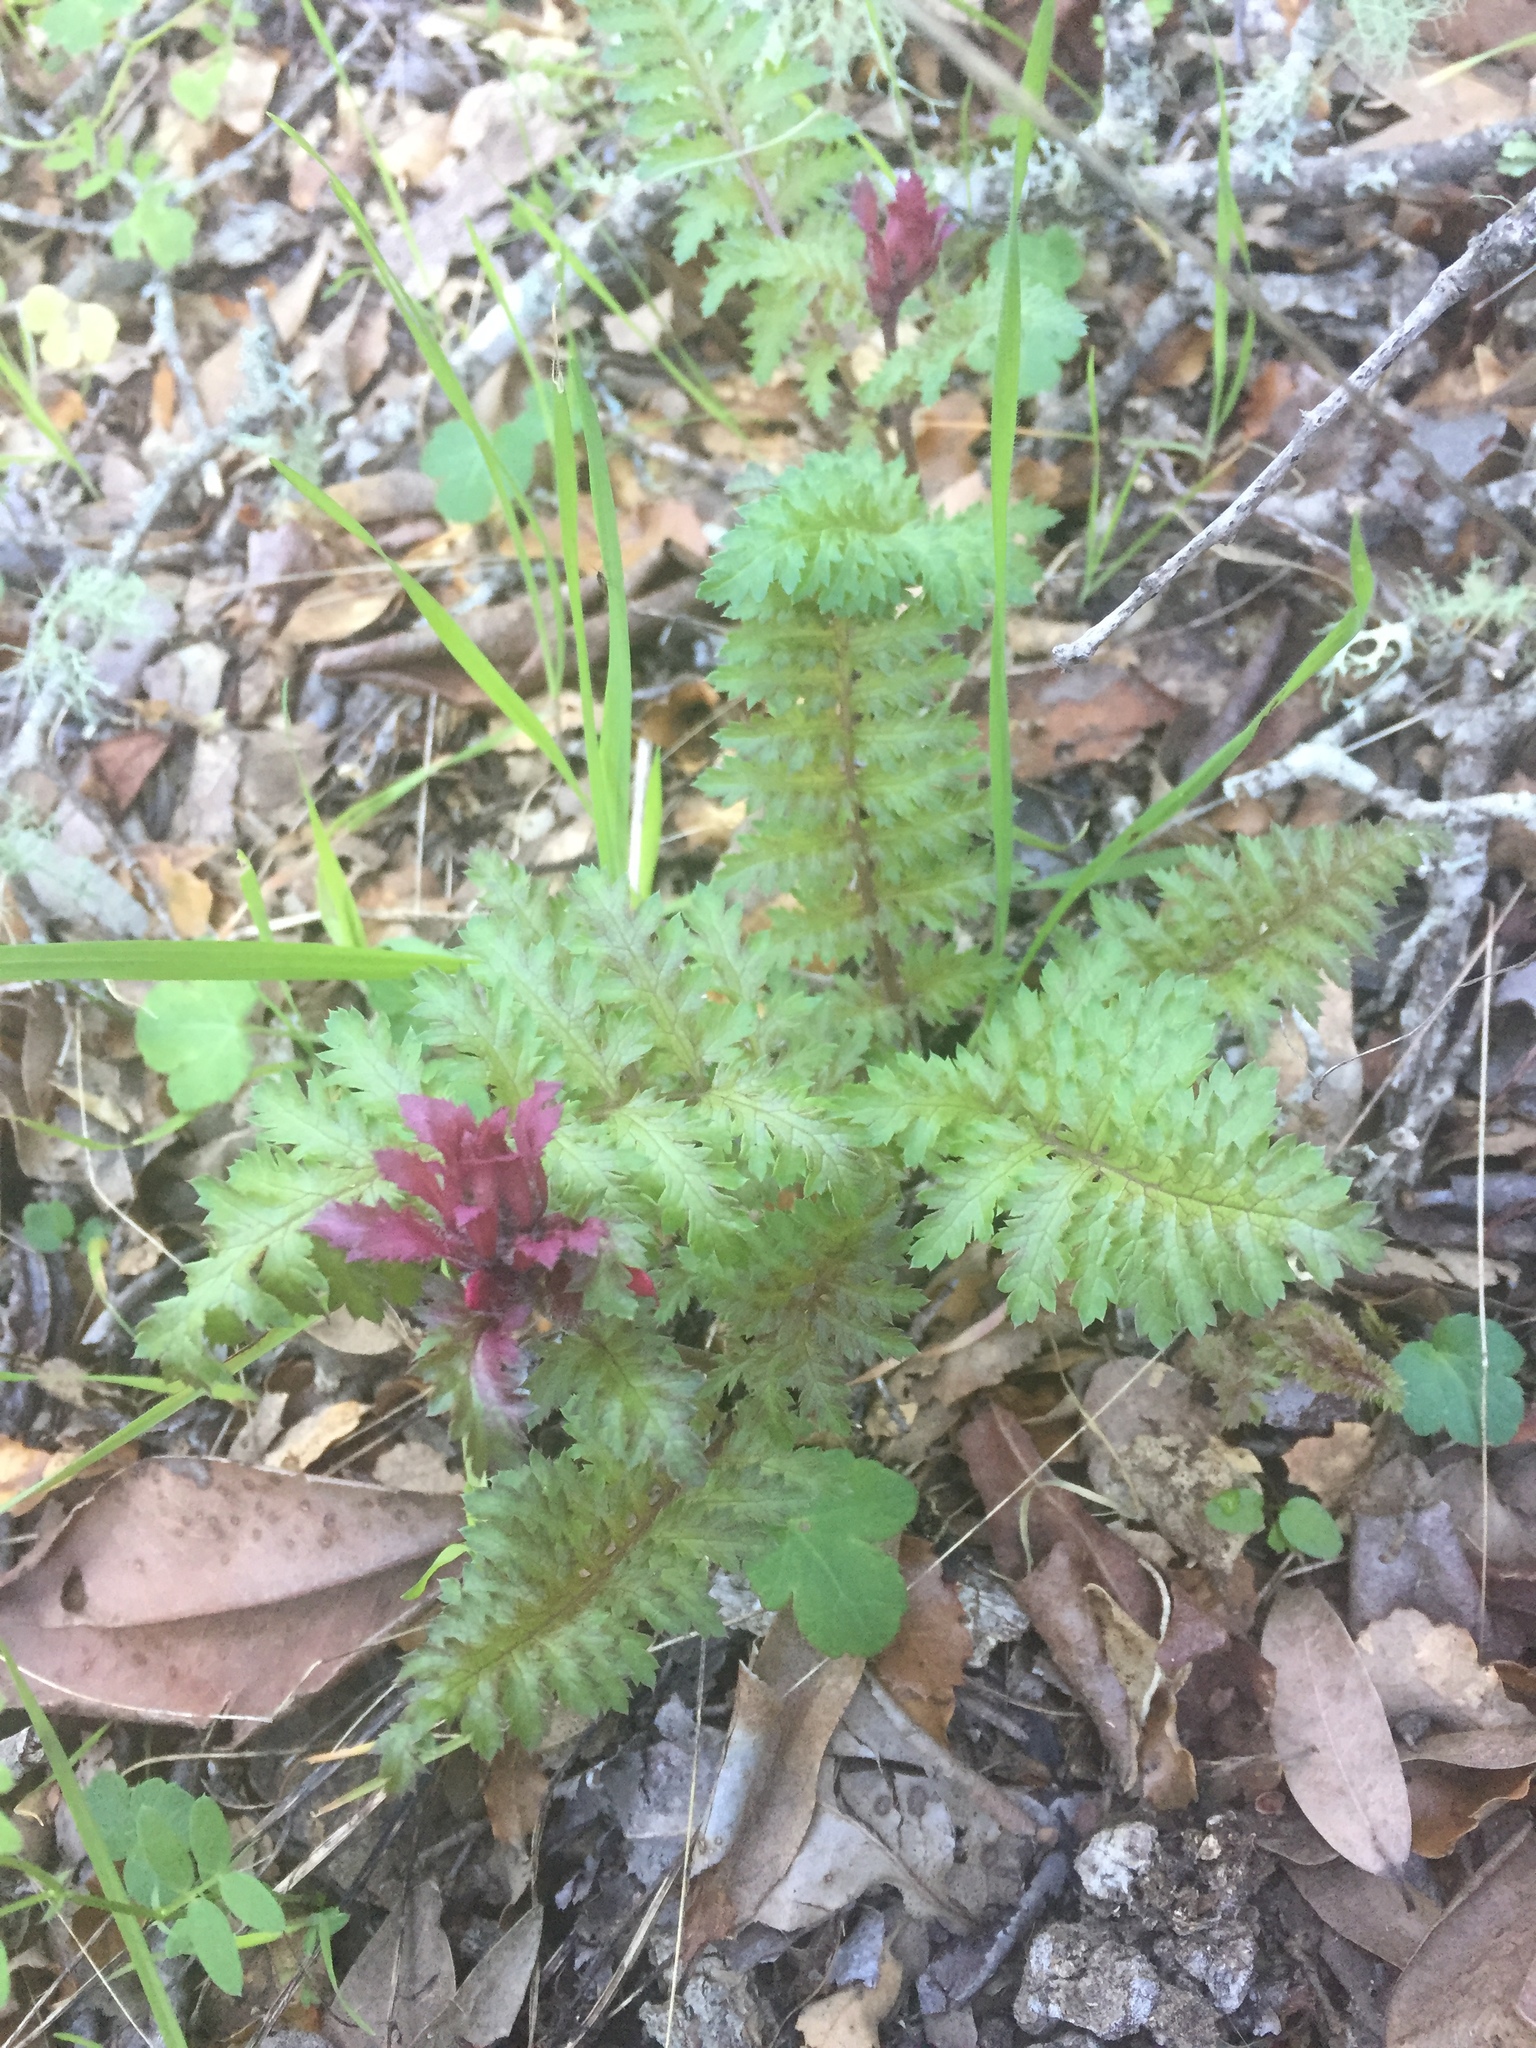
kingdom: Plantae
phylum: Tracheophyta
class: Magnoliopsida
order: Lamiales
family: Orobanchaceae
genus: Pedicularis
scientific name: Pedicularis densiflora
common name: Indian warrior
